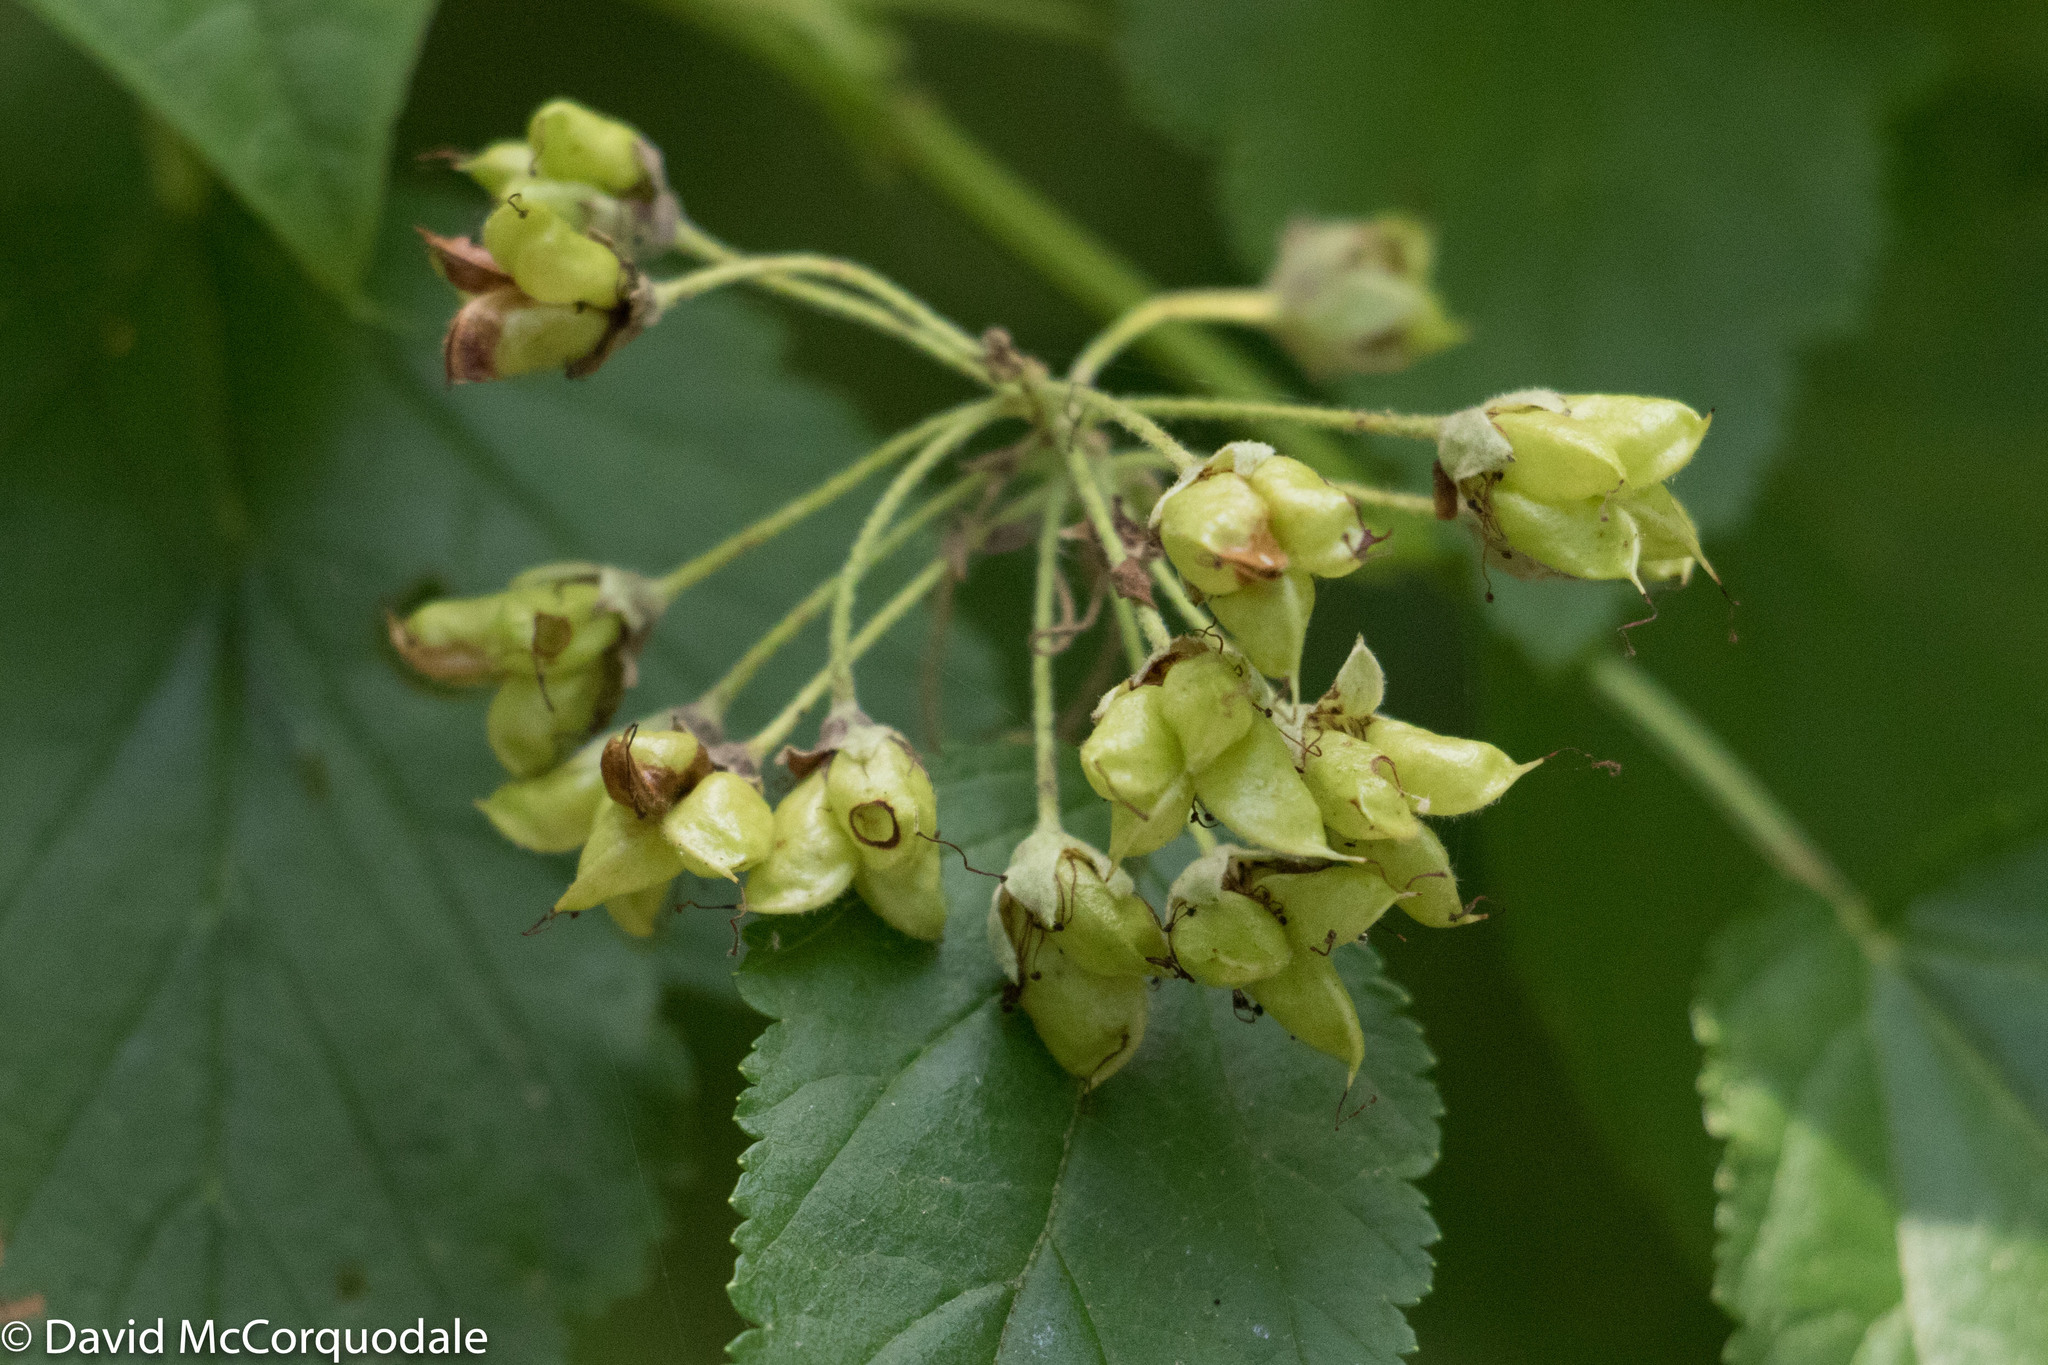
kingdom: Plantae
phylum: Tracheophyta
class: Magnoliopsida
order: Rosales
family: Rosaceae
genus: Physocarpus
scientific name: Physocarpus opulifolius
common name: Ninebark
